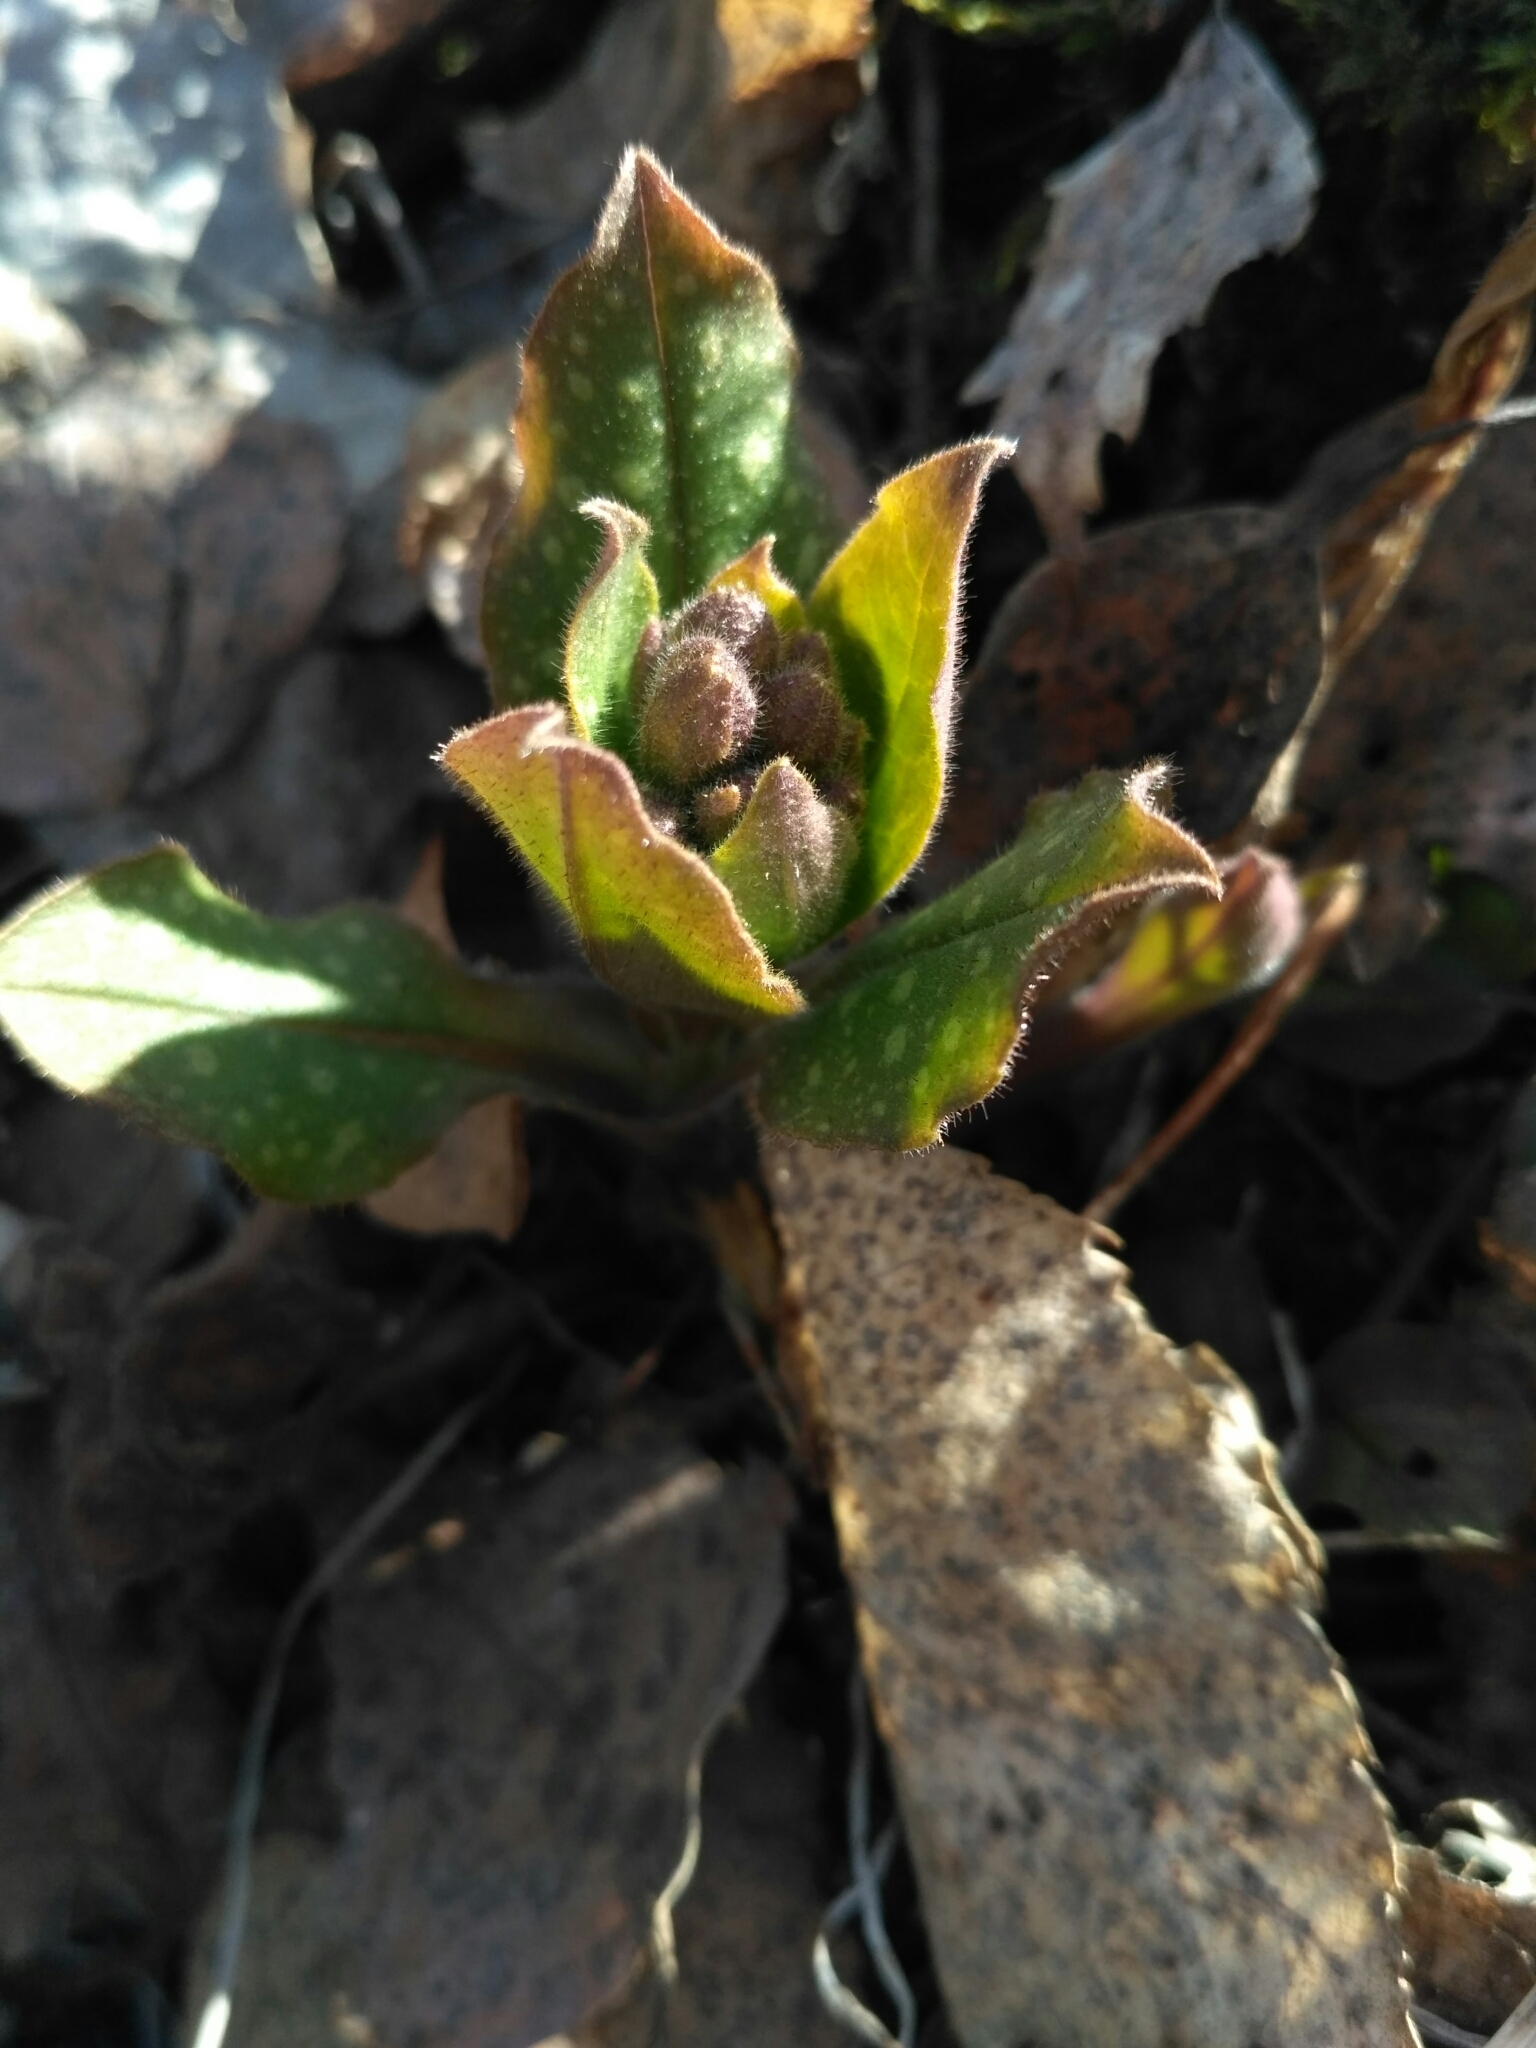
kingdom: Plantae
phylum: Tracheophyta
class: Magnoliopsida
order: Boraginales
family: Boraginaceae
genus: Pulmonaria
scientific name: Pulmonaria obscura
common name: Suffolk lungwort
